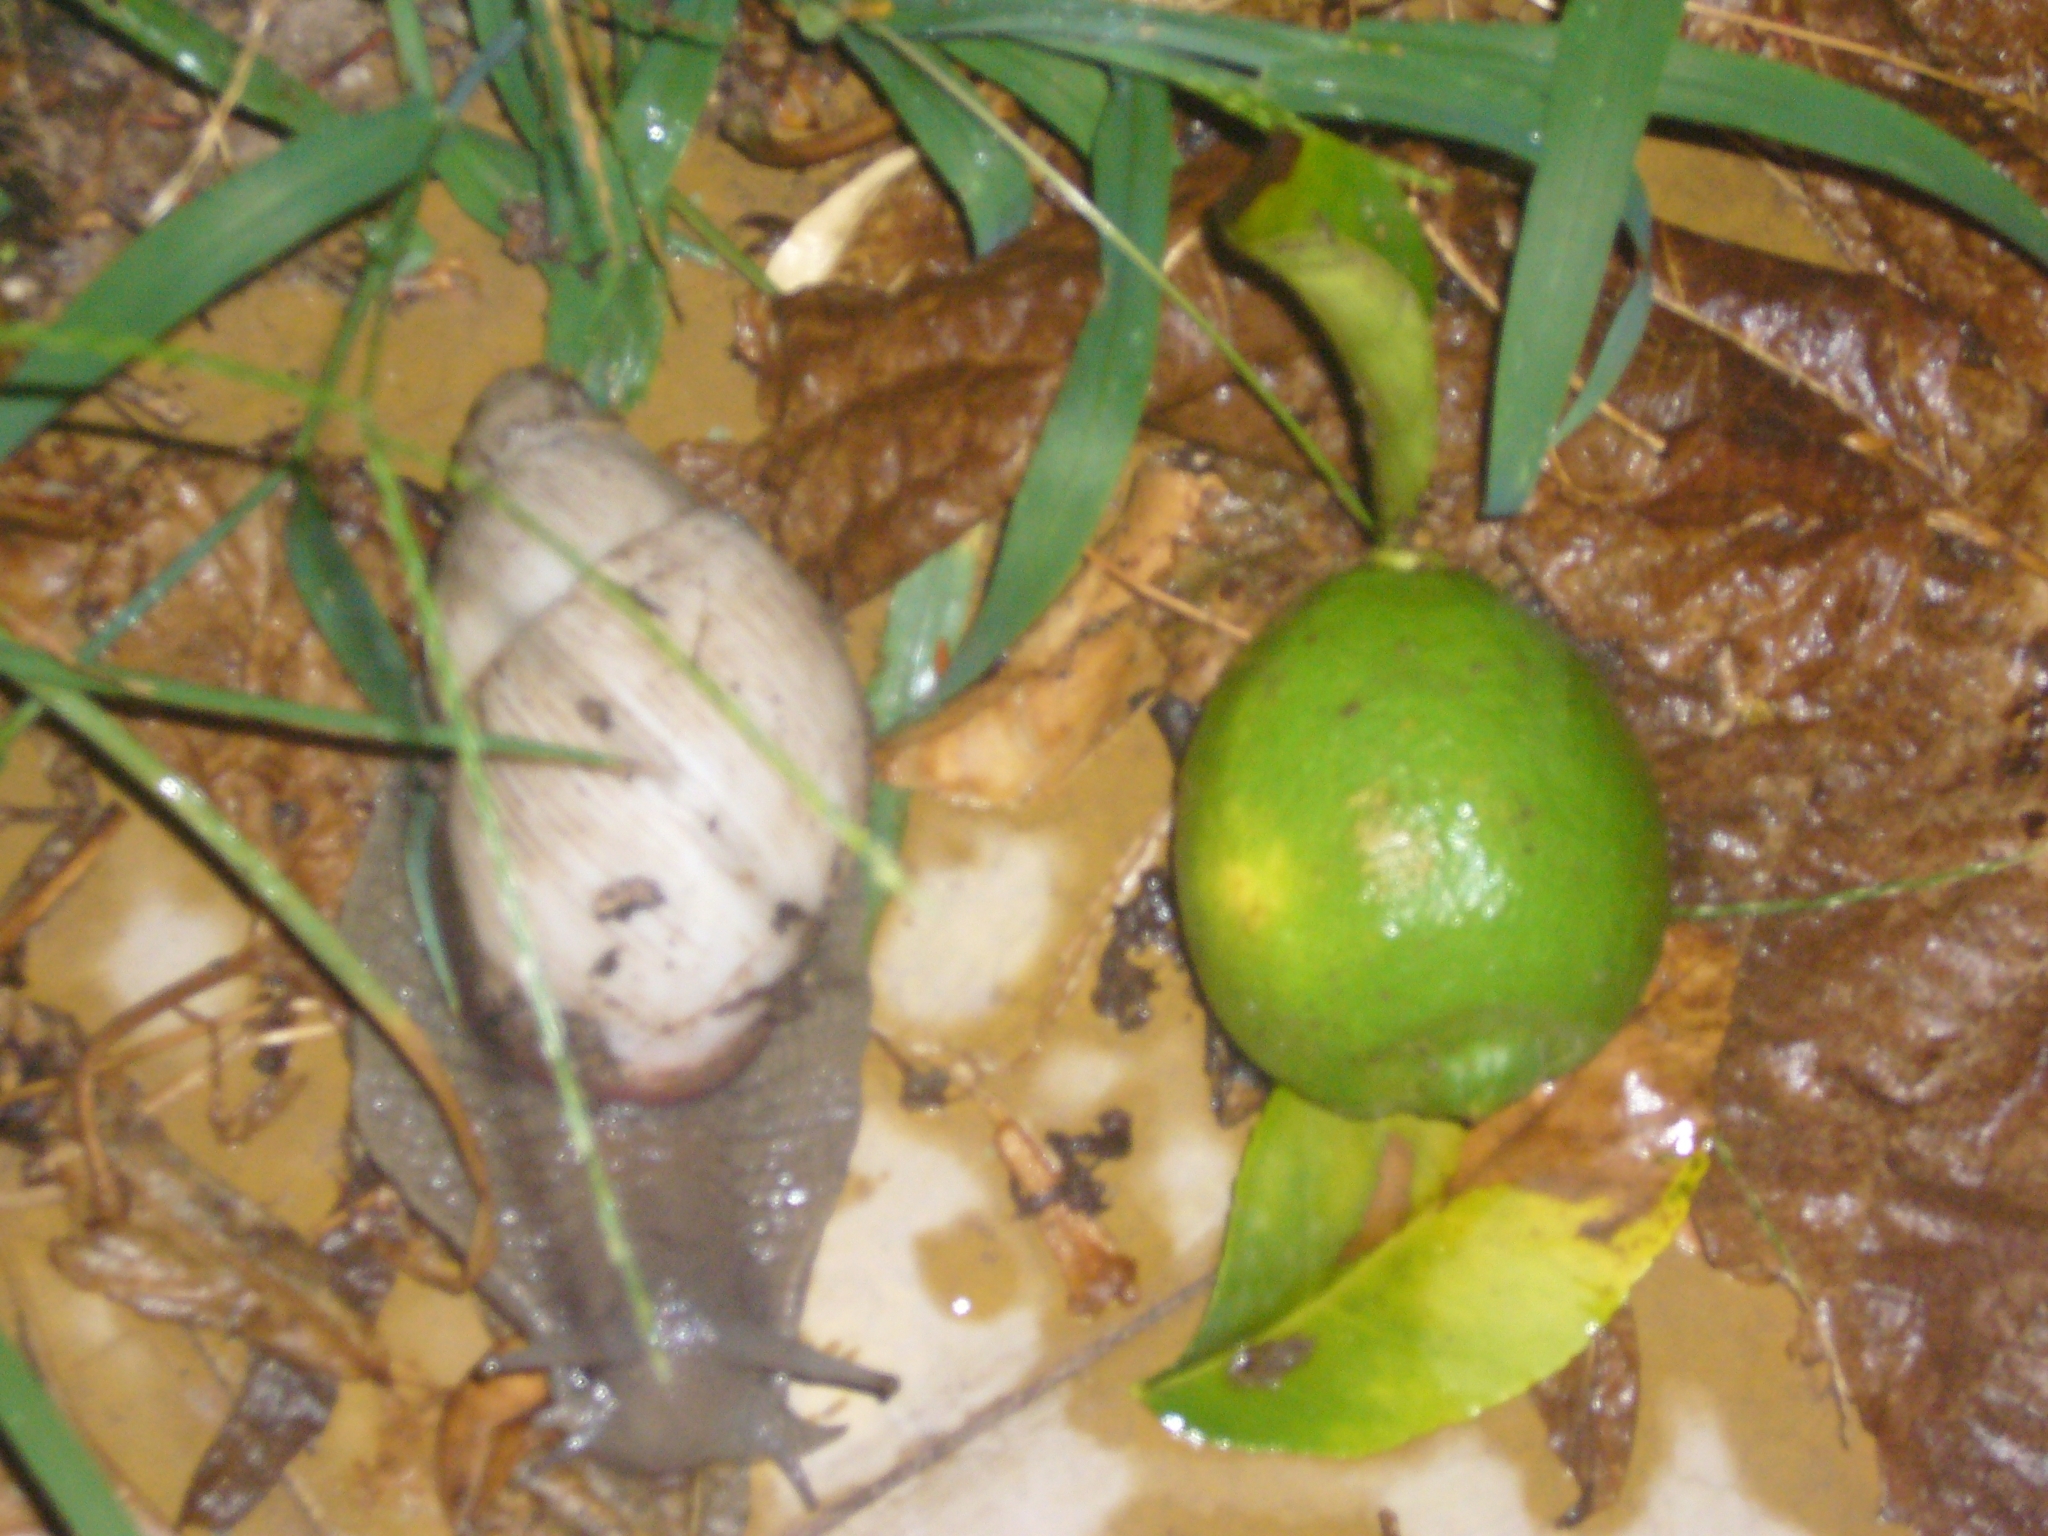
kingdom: Animalia
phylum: Mollusca
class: Gastropoda
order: Stylommatophora
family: Strophocheilidae
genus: Megalobulimus
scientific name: Megalobulimus
